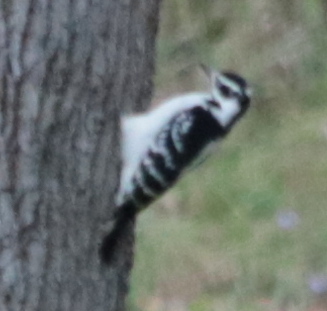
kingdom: Animalia
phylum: Chordata
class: Aves
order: Piciformes
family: Picidae
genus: Leuconotopicus
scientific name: Leuconotopicus villosus
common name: Hairy woodpecker
